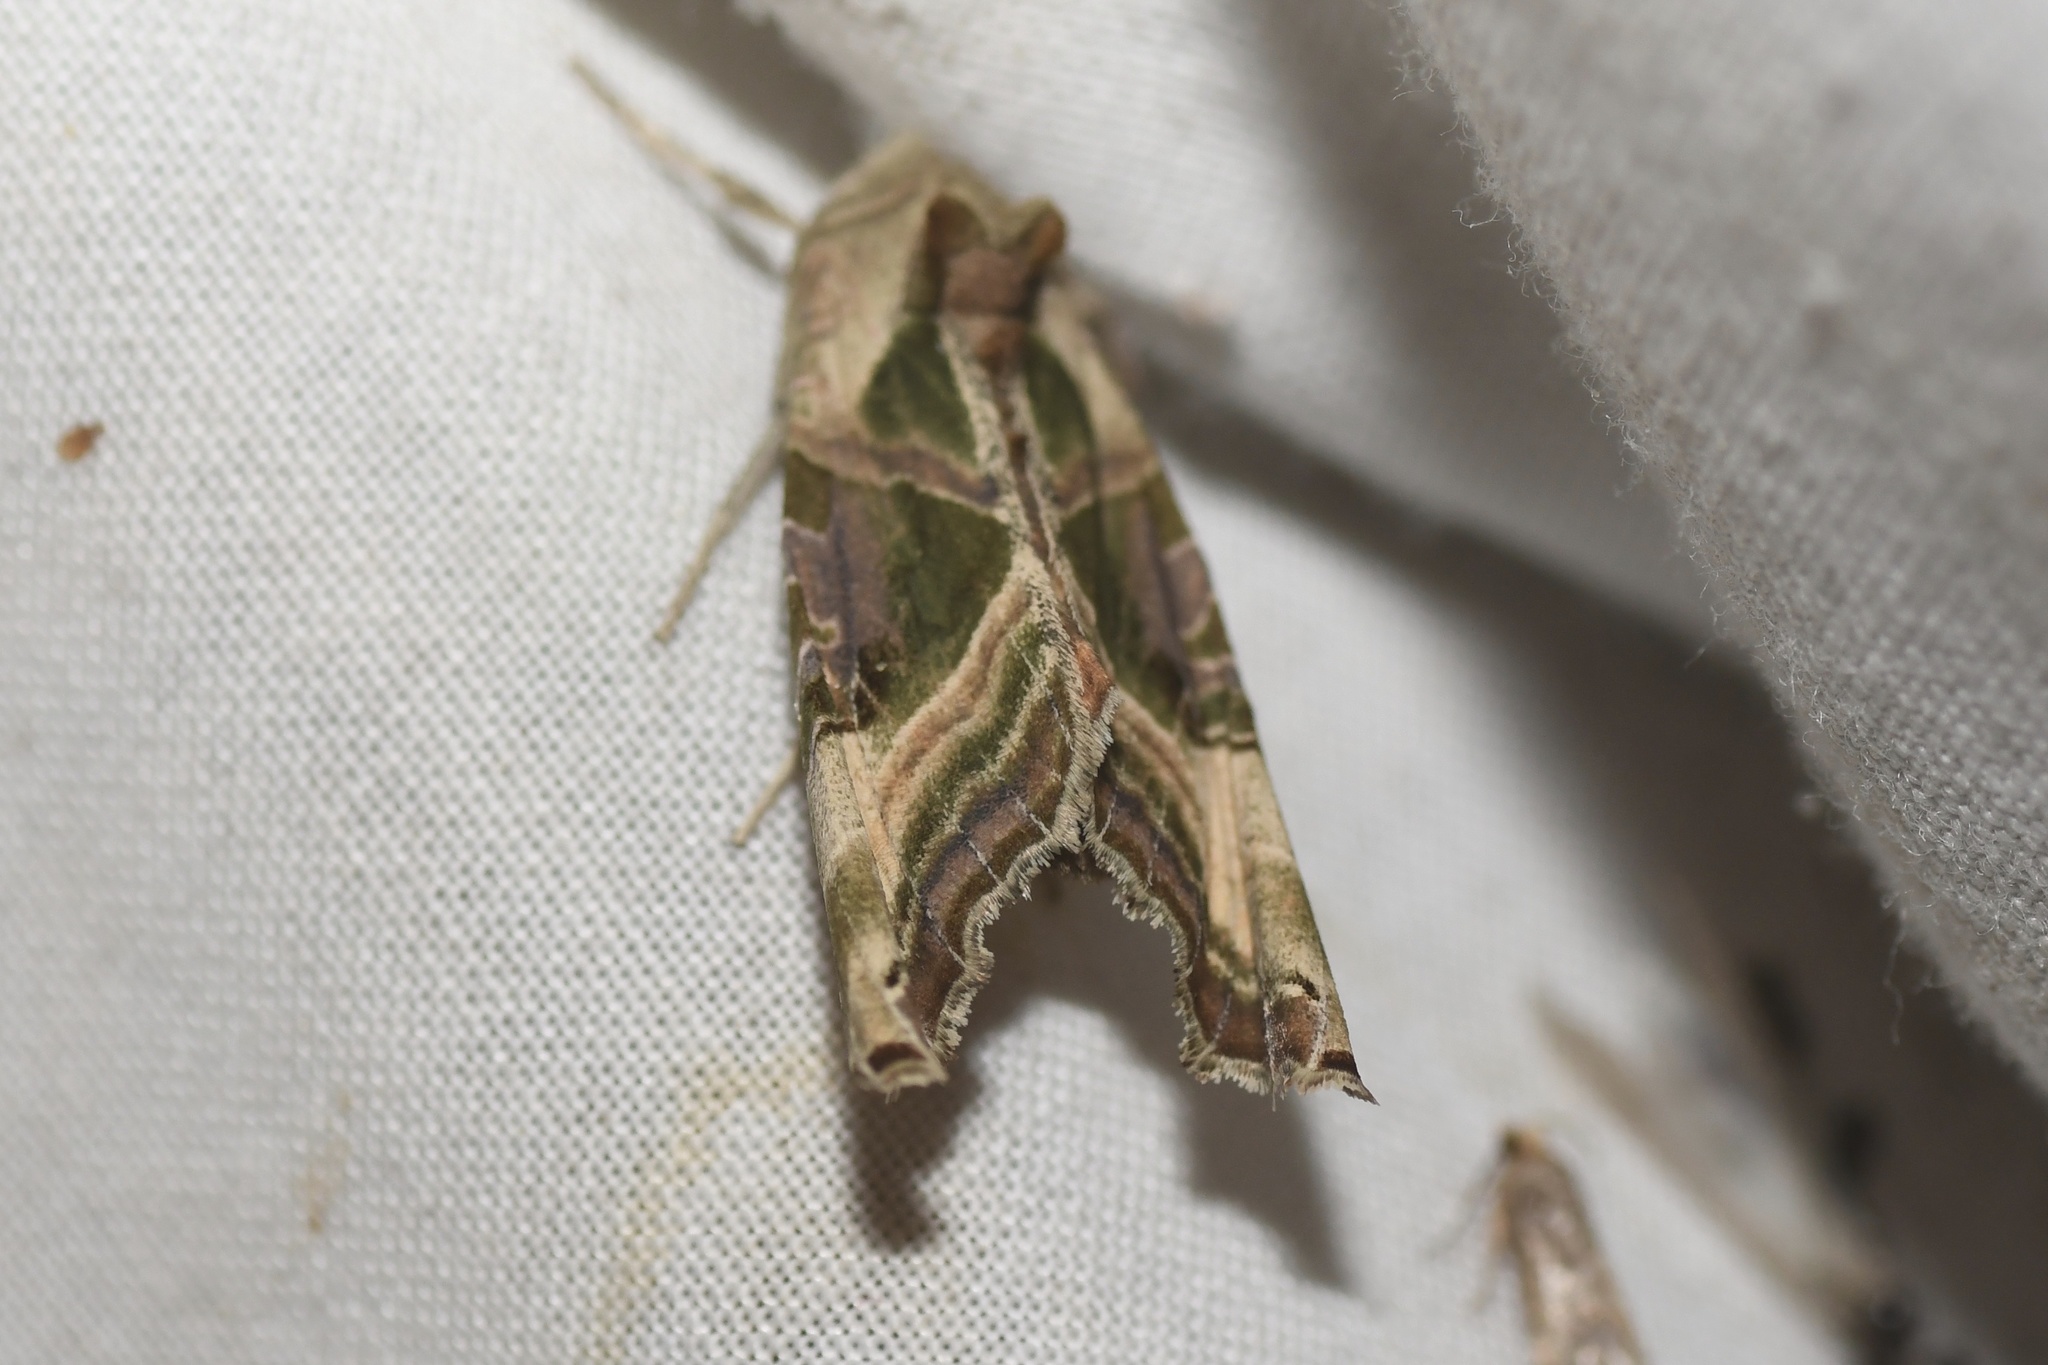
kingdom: Animalia
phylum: Arthropoda
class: Insecta
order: Lepidoptera
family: Noctuidae
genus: Phlogophora
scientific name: Phlogophora iris
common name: Olive angle shades
